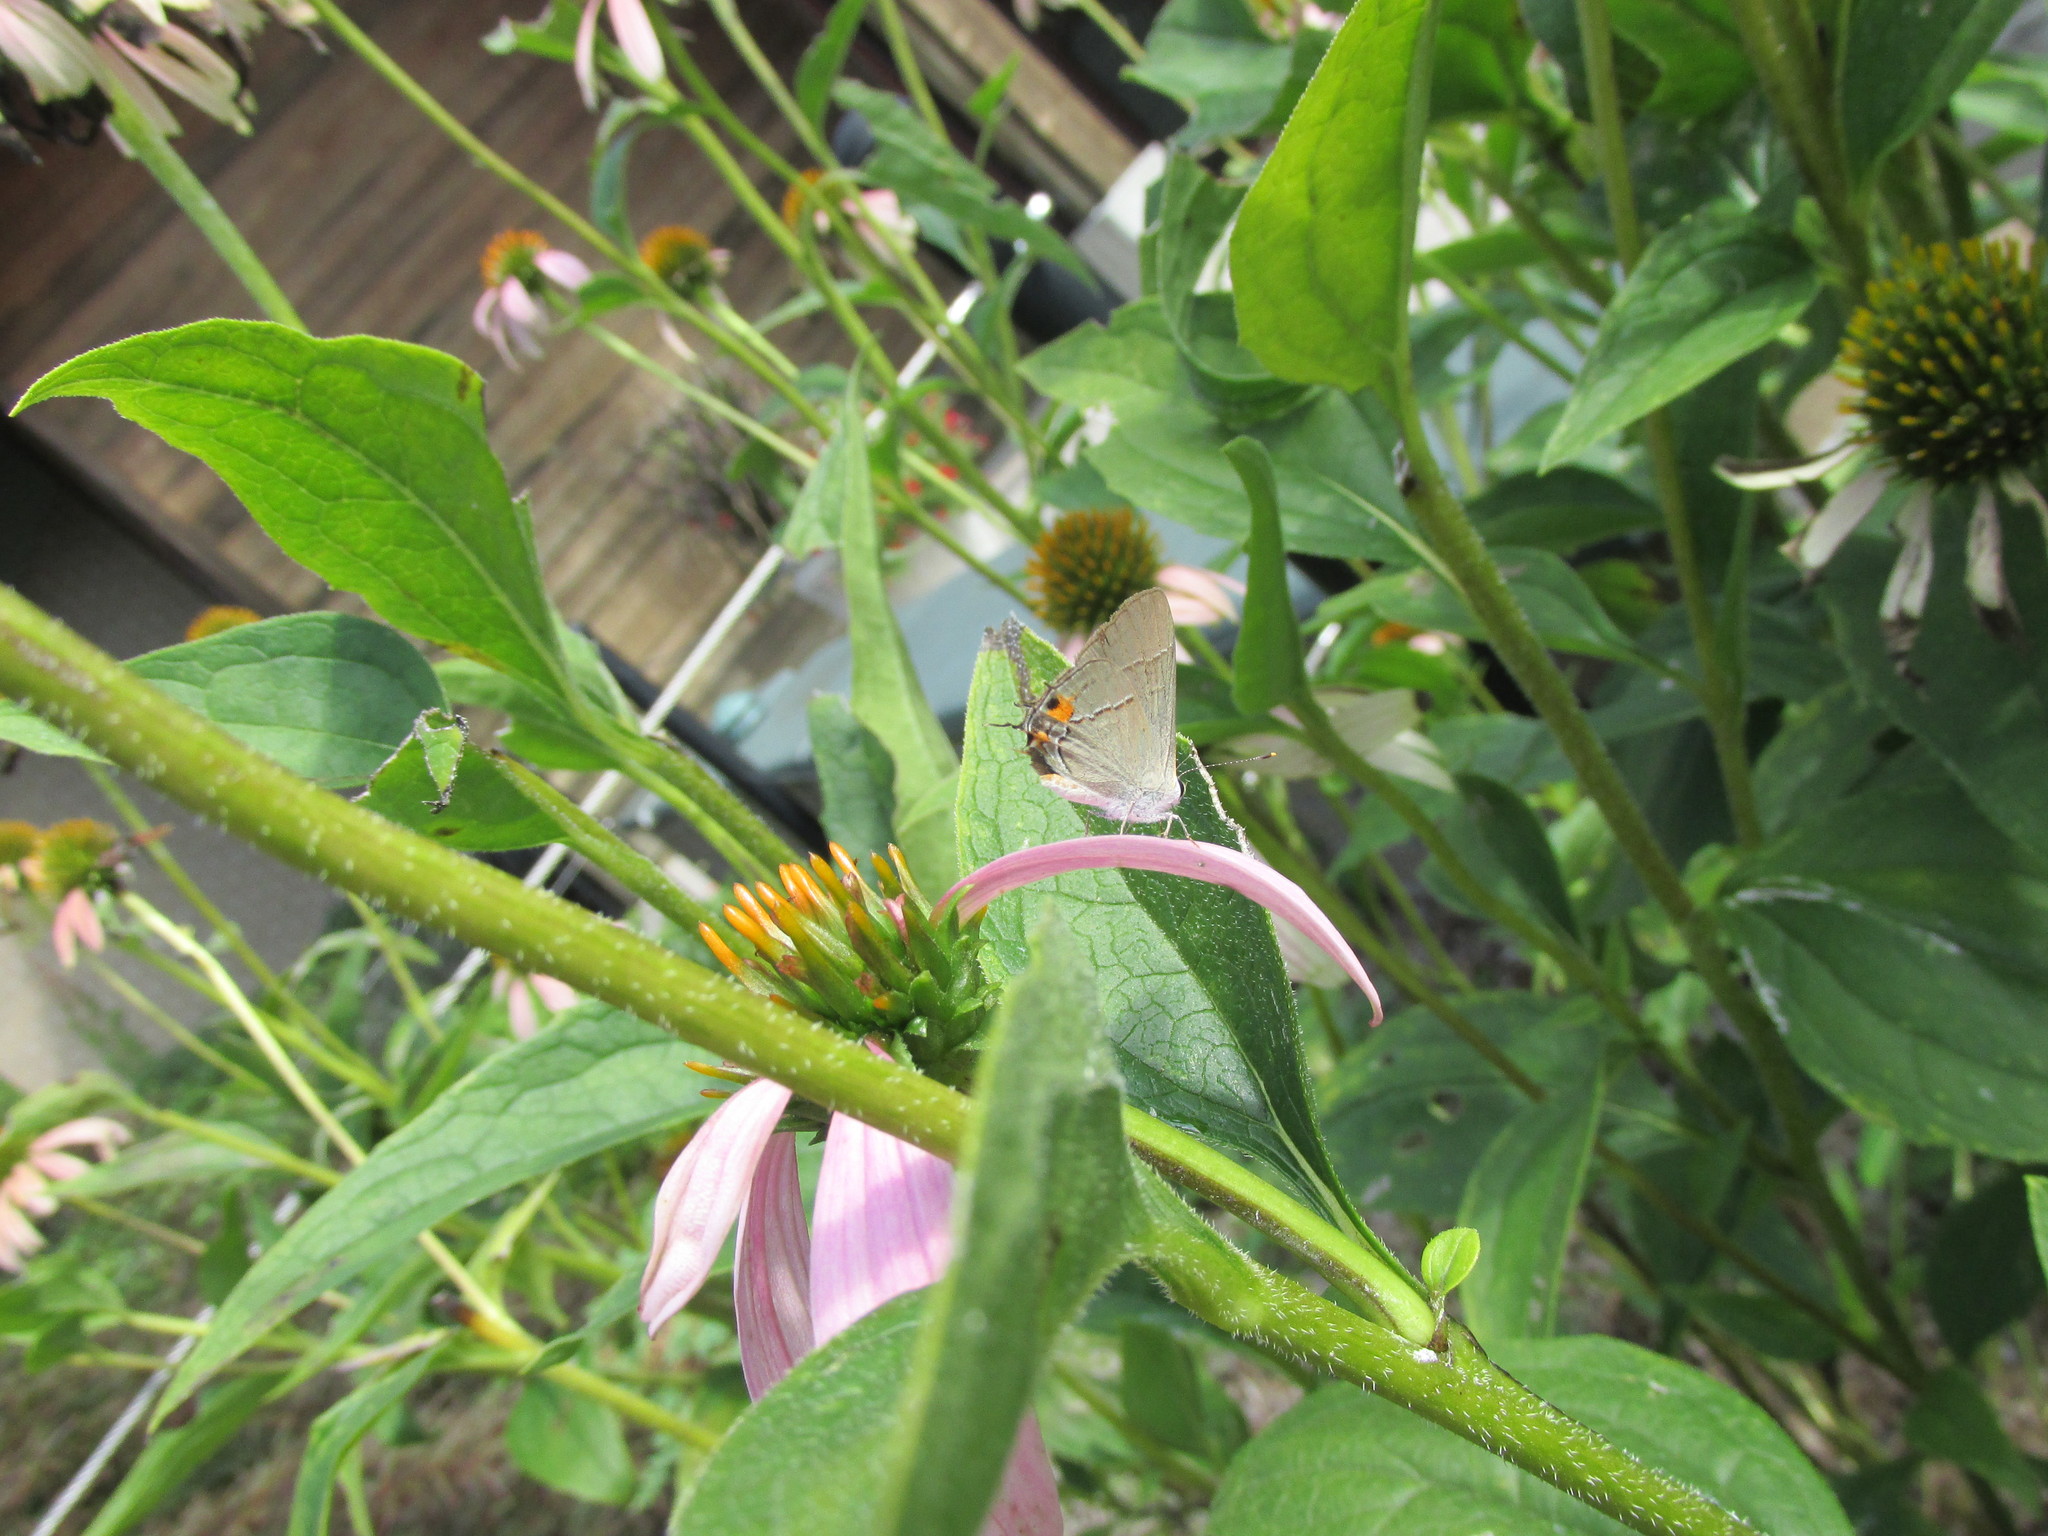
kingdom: Animalia
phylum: Arthropoda
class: Insecta
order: Lepidoptera
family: Lycaenidae
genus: Strymon
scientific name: Strymon melinus
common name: Gray hairstreak
